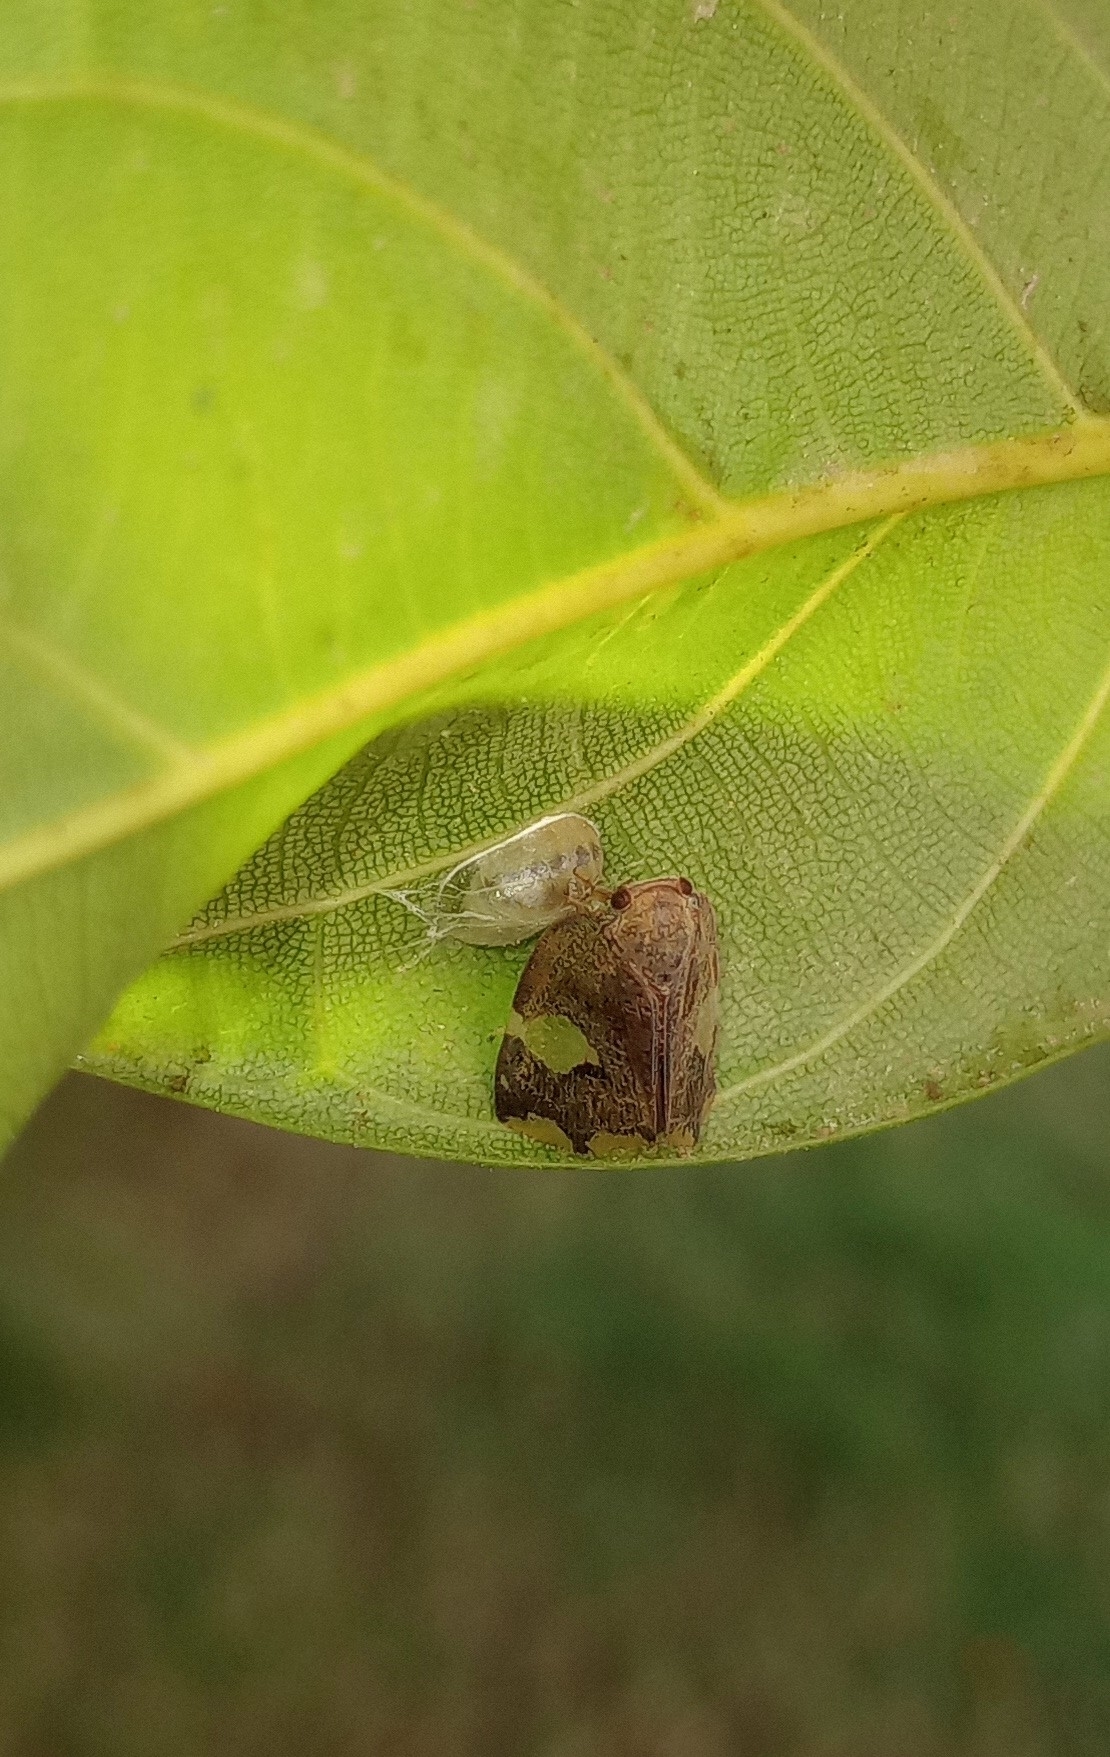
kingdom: Animalia
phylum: Arthropoda
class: Insecta
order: Hemiptera
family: Ricaniidae
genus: Ricania
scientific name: Ricania fenestrata
